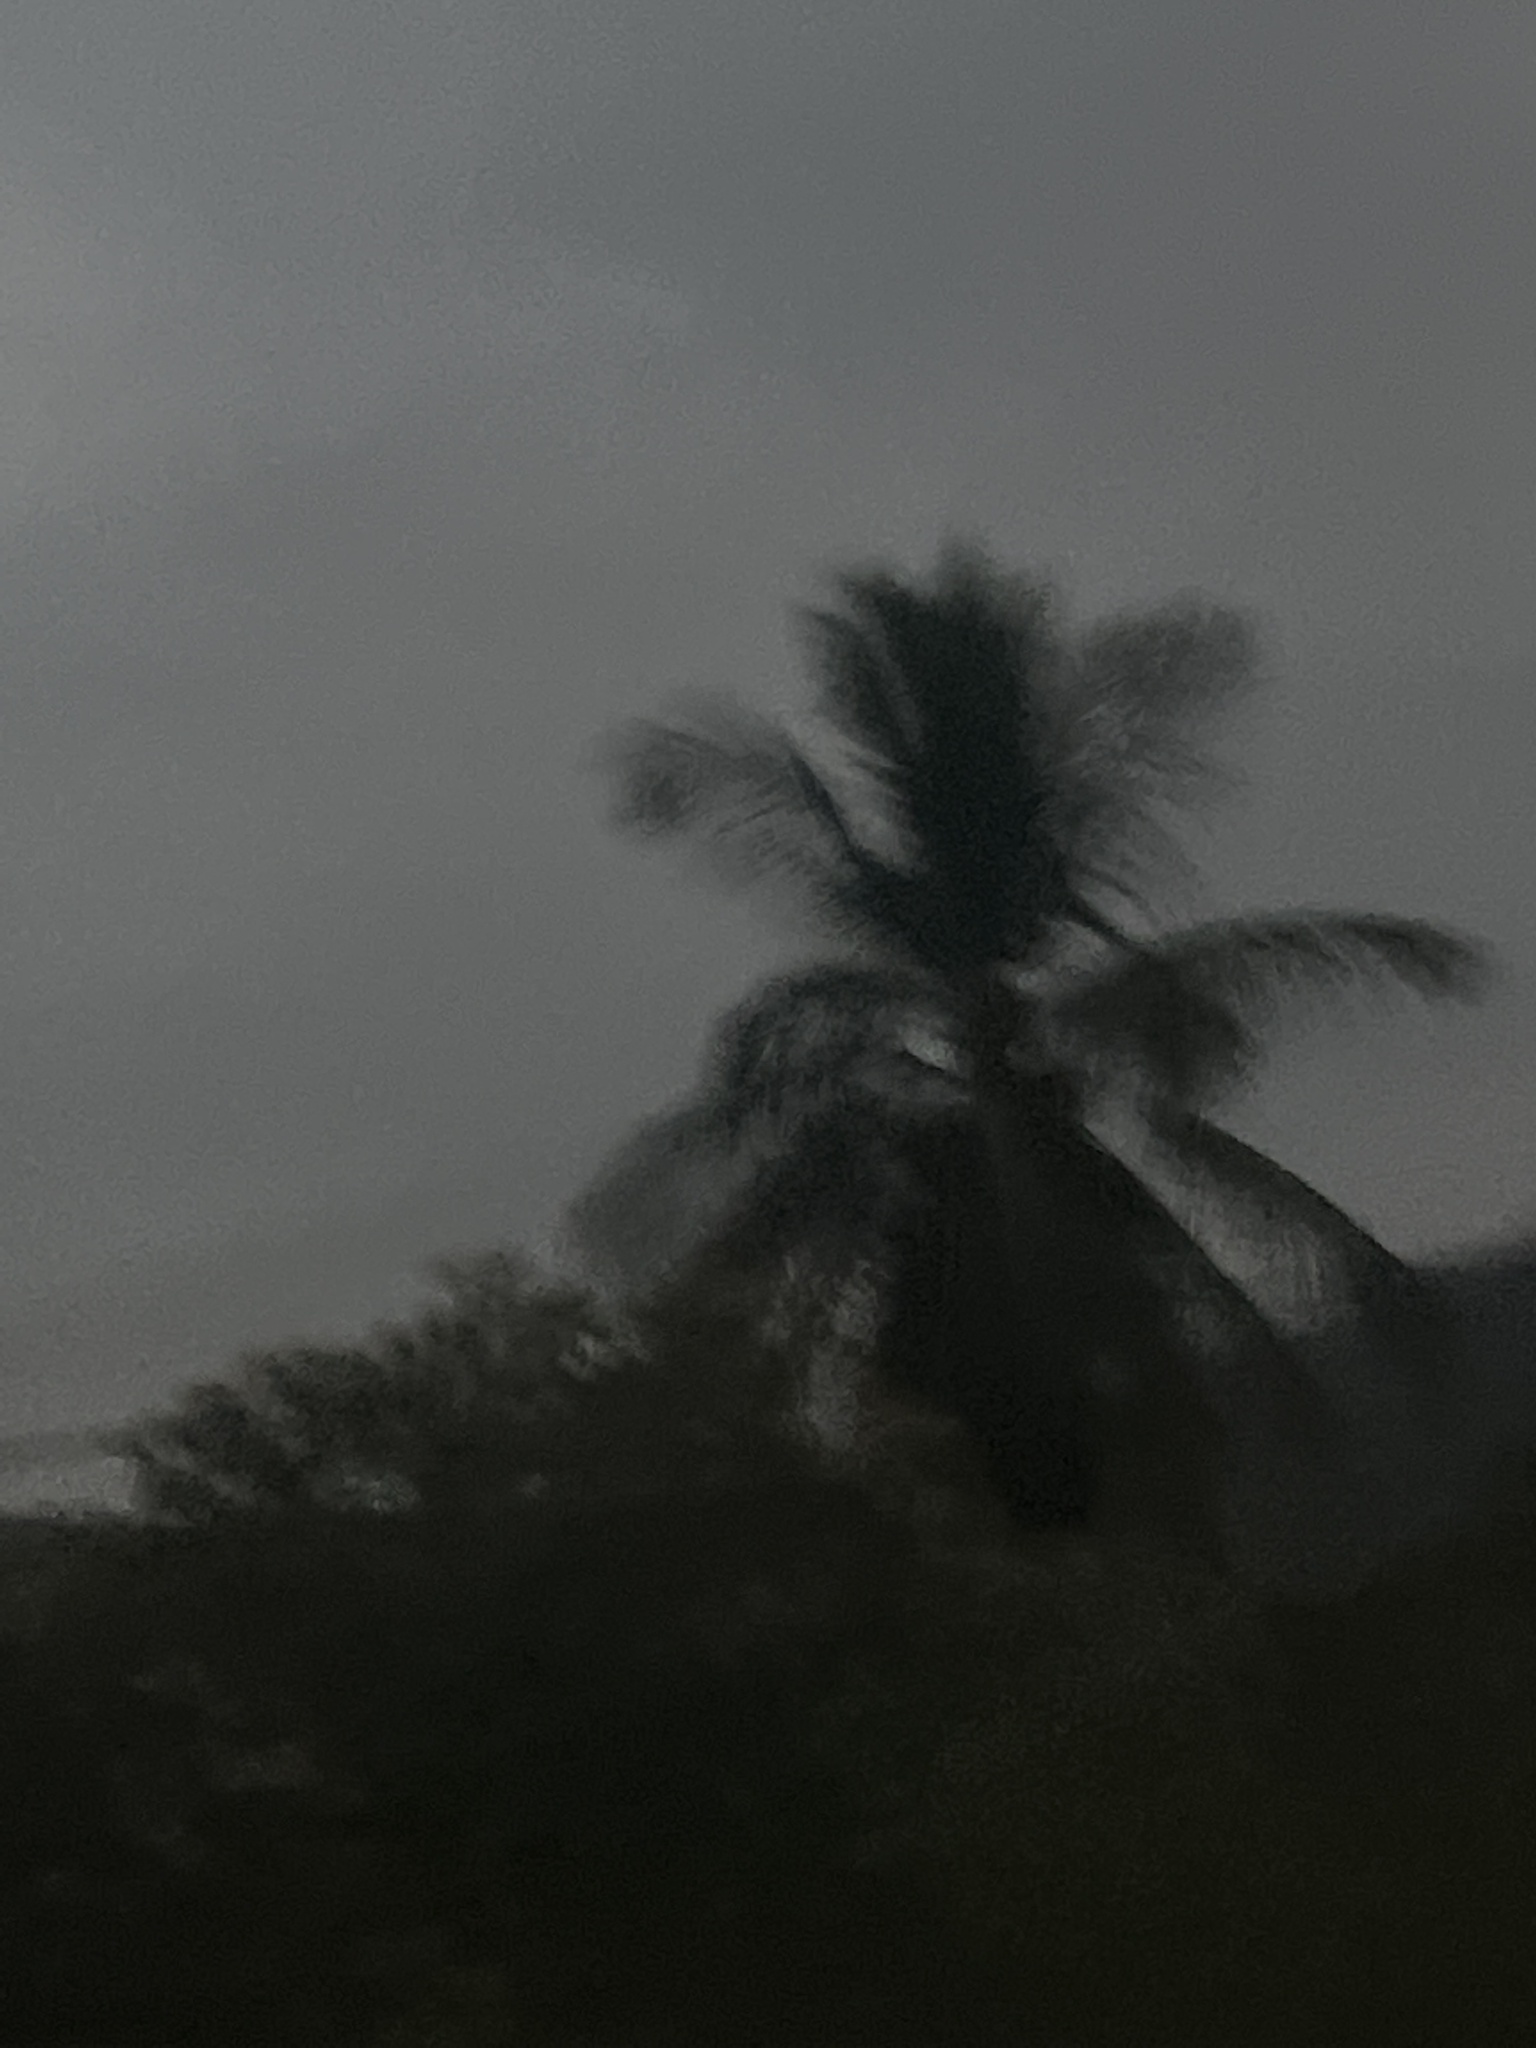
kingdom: Plantae
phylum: Tracheophyta
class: Liliopsida
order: Arecales
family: Arecaceae
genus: Cocos
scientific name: Cocos nucifera
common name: Coconut palm
